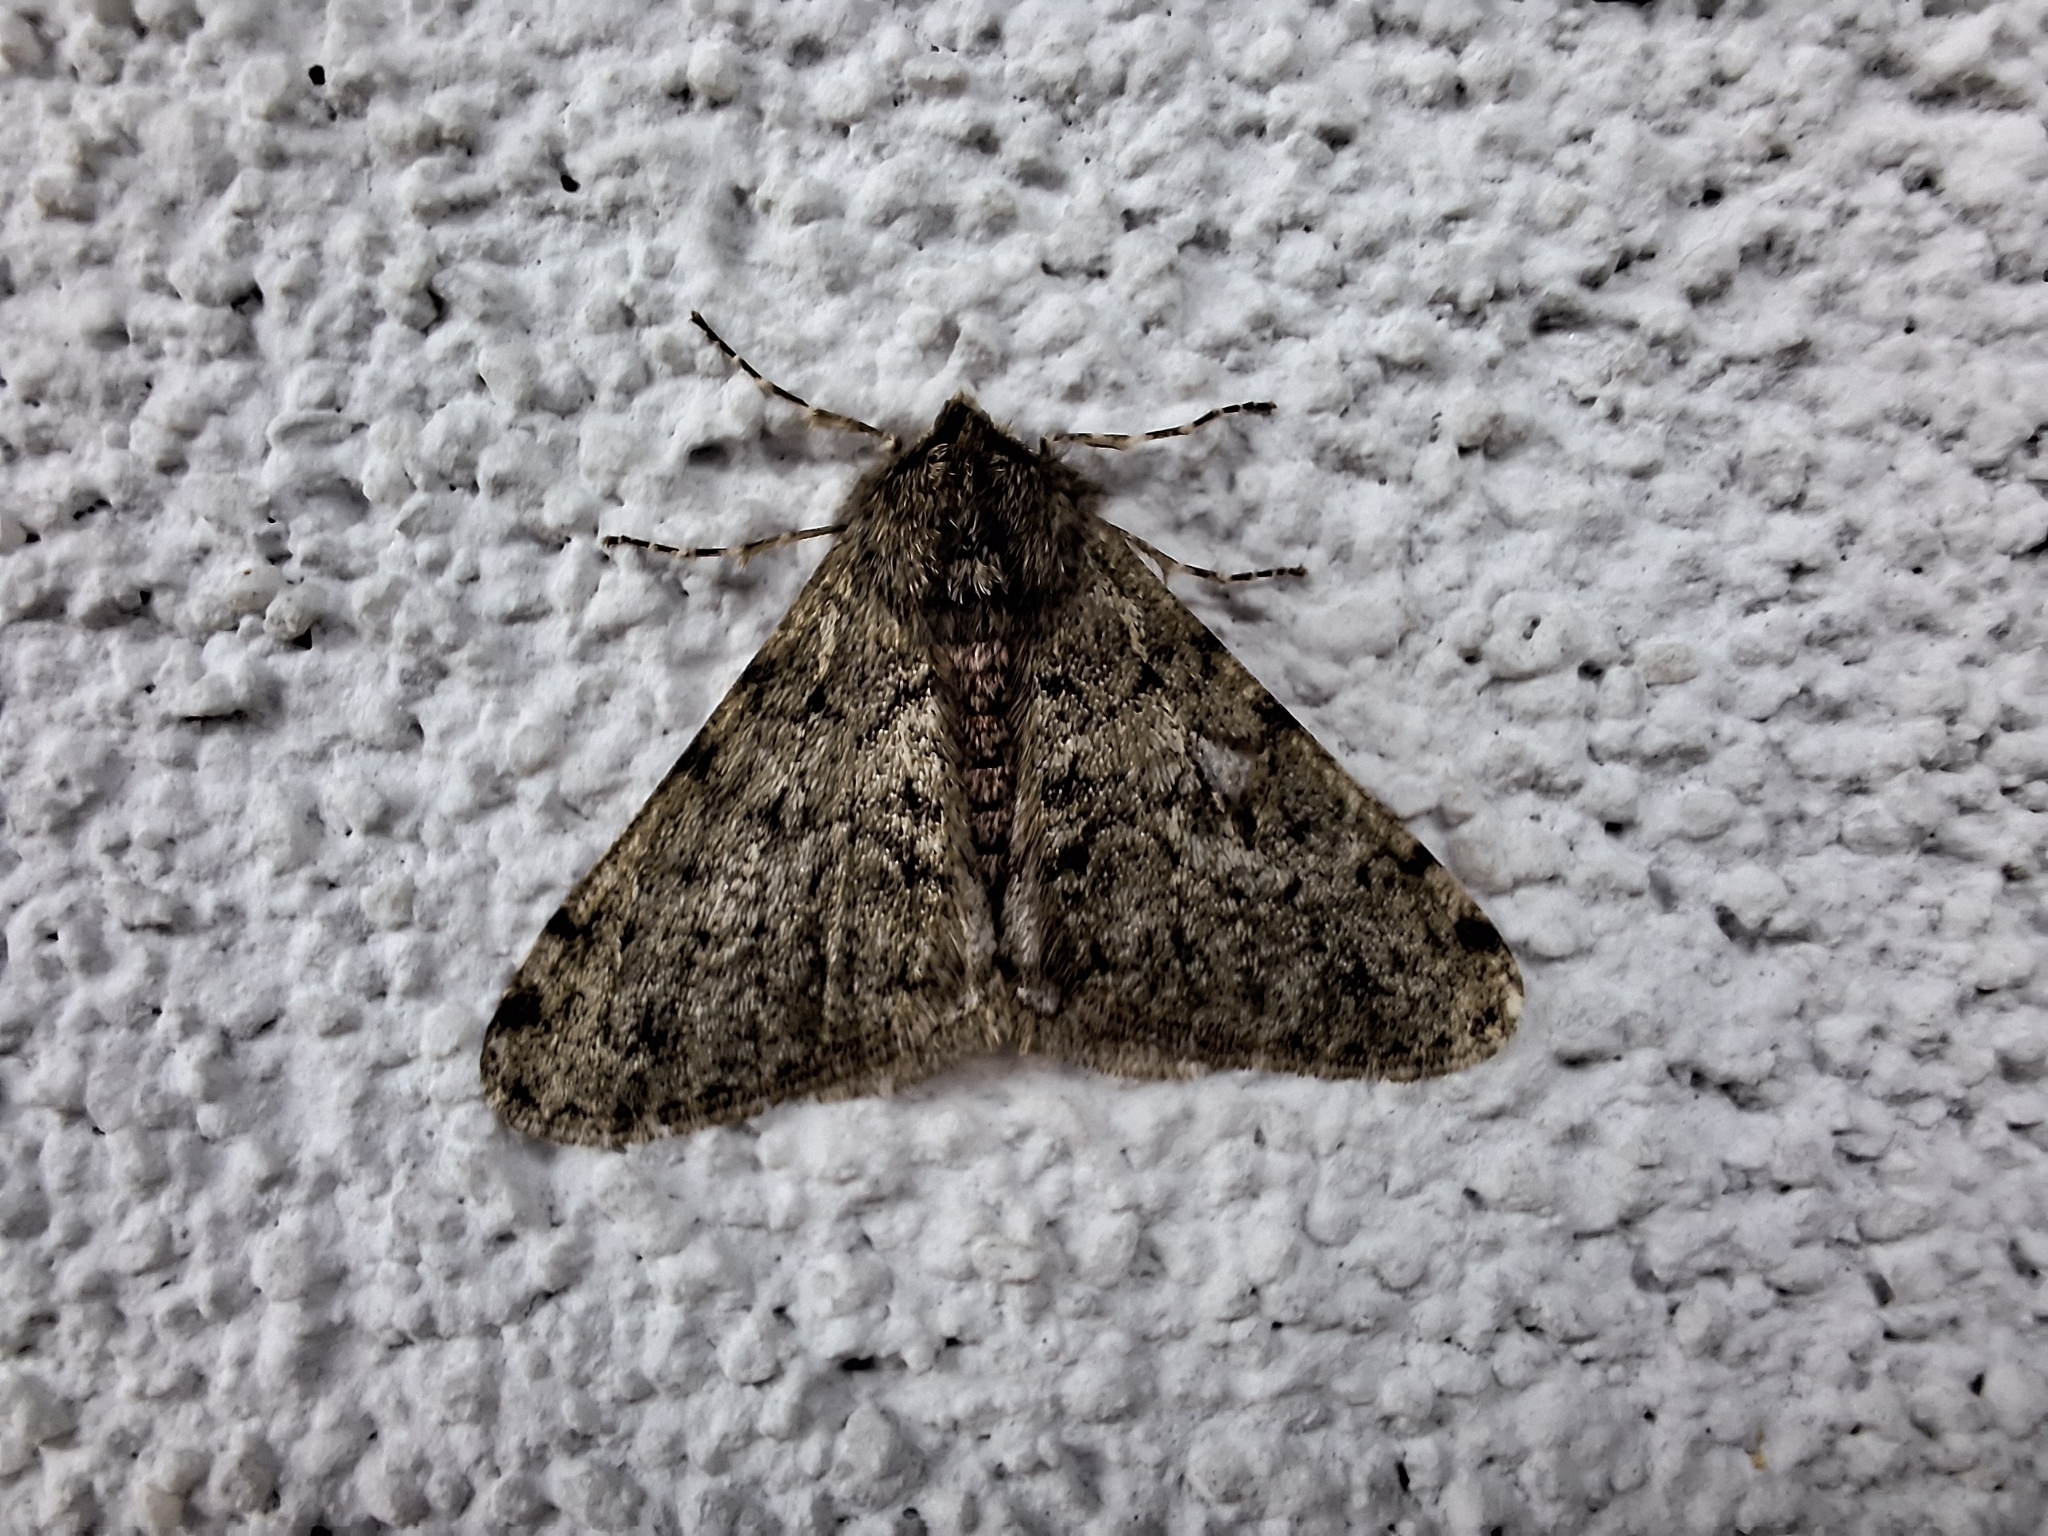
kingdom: Animalia
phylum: Arthropoda
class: Insecta
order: Lepidoptera
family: Geometridae
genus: Phigalia
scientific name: Phigalia pilosaria
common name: Pale brindled beauty
